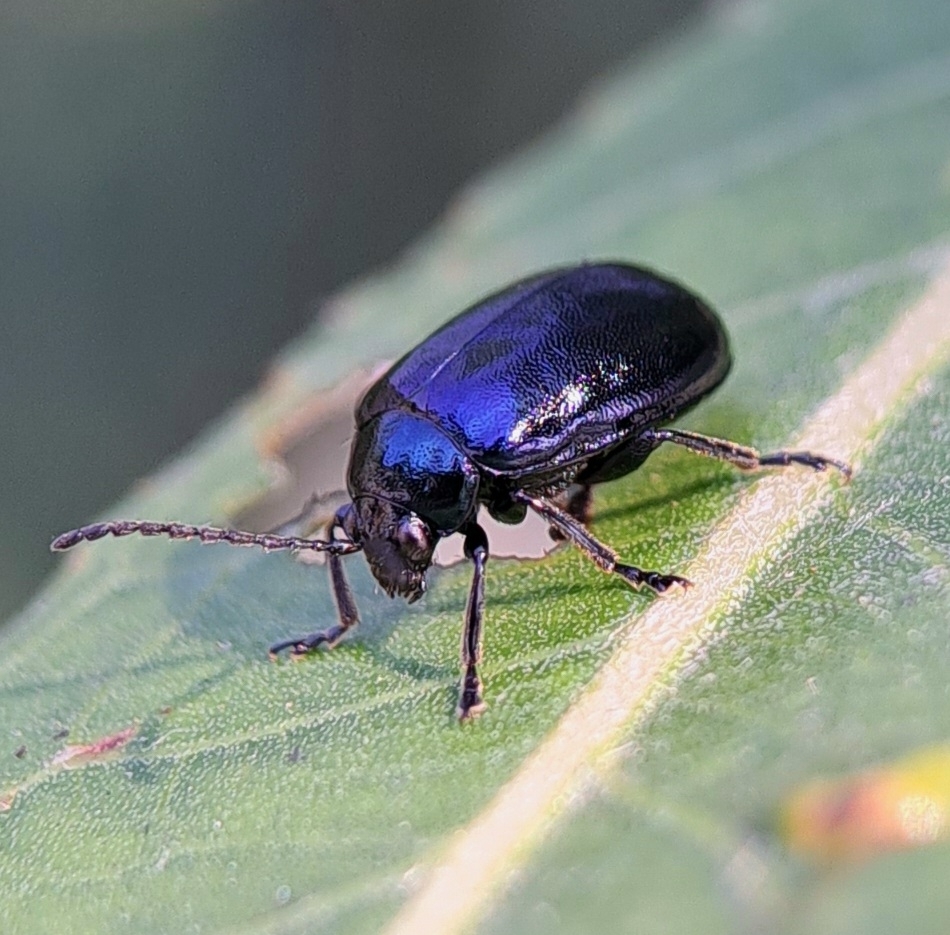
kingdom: Animalia
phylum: Arthropoda
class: Insecta
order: Coleoptera
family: Chrysomelidae
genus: Agelastica
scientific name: Agelastica alni
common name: Alder leaf beetle
